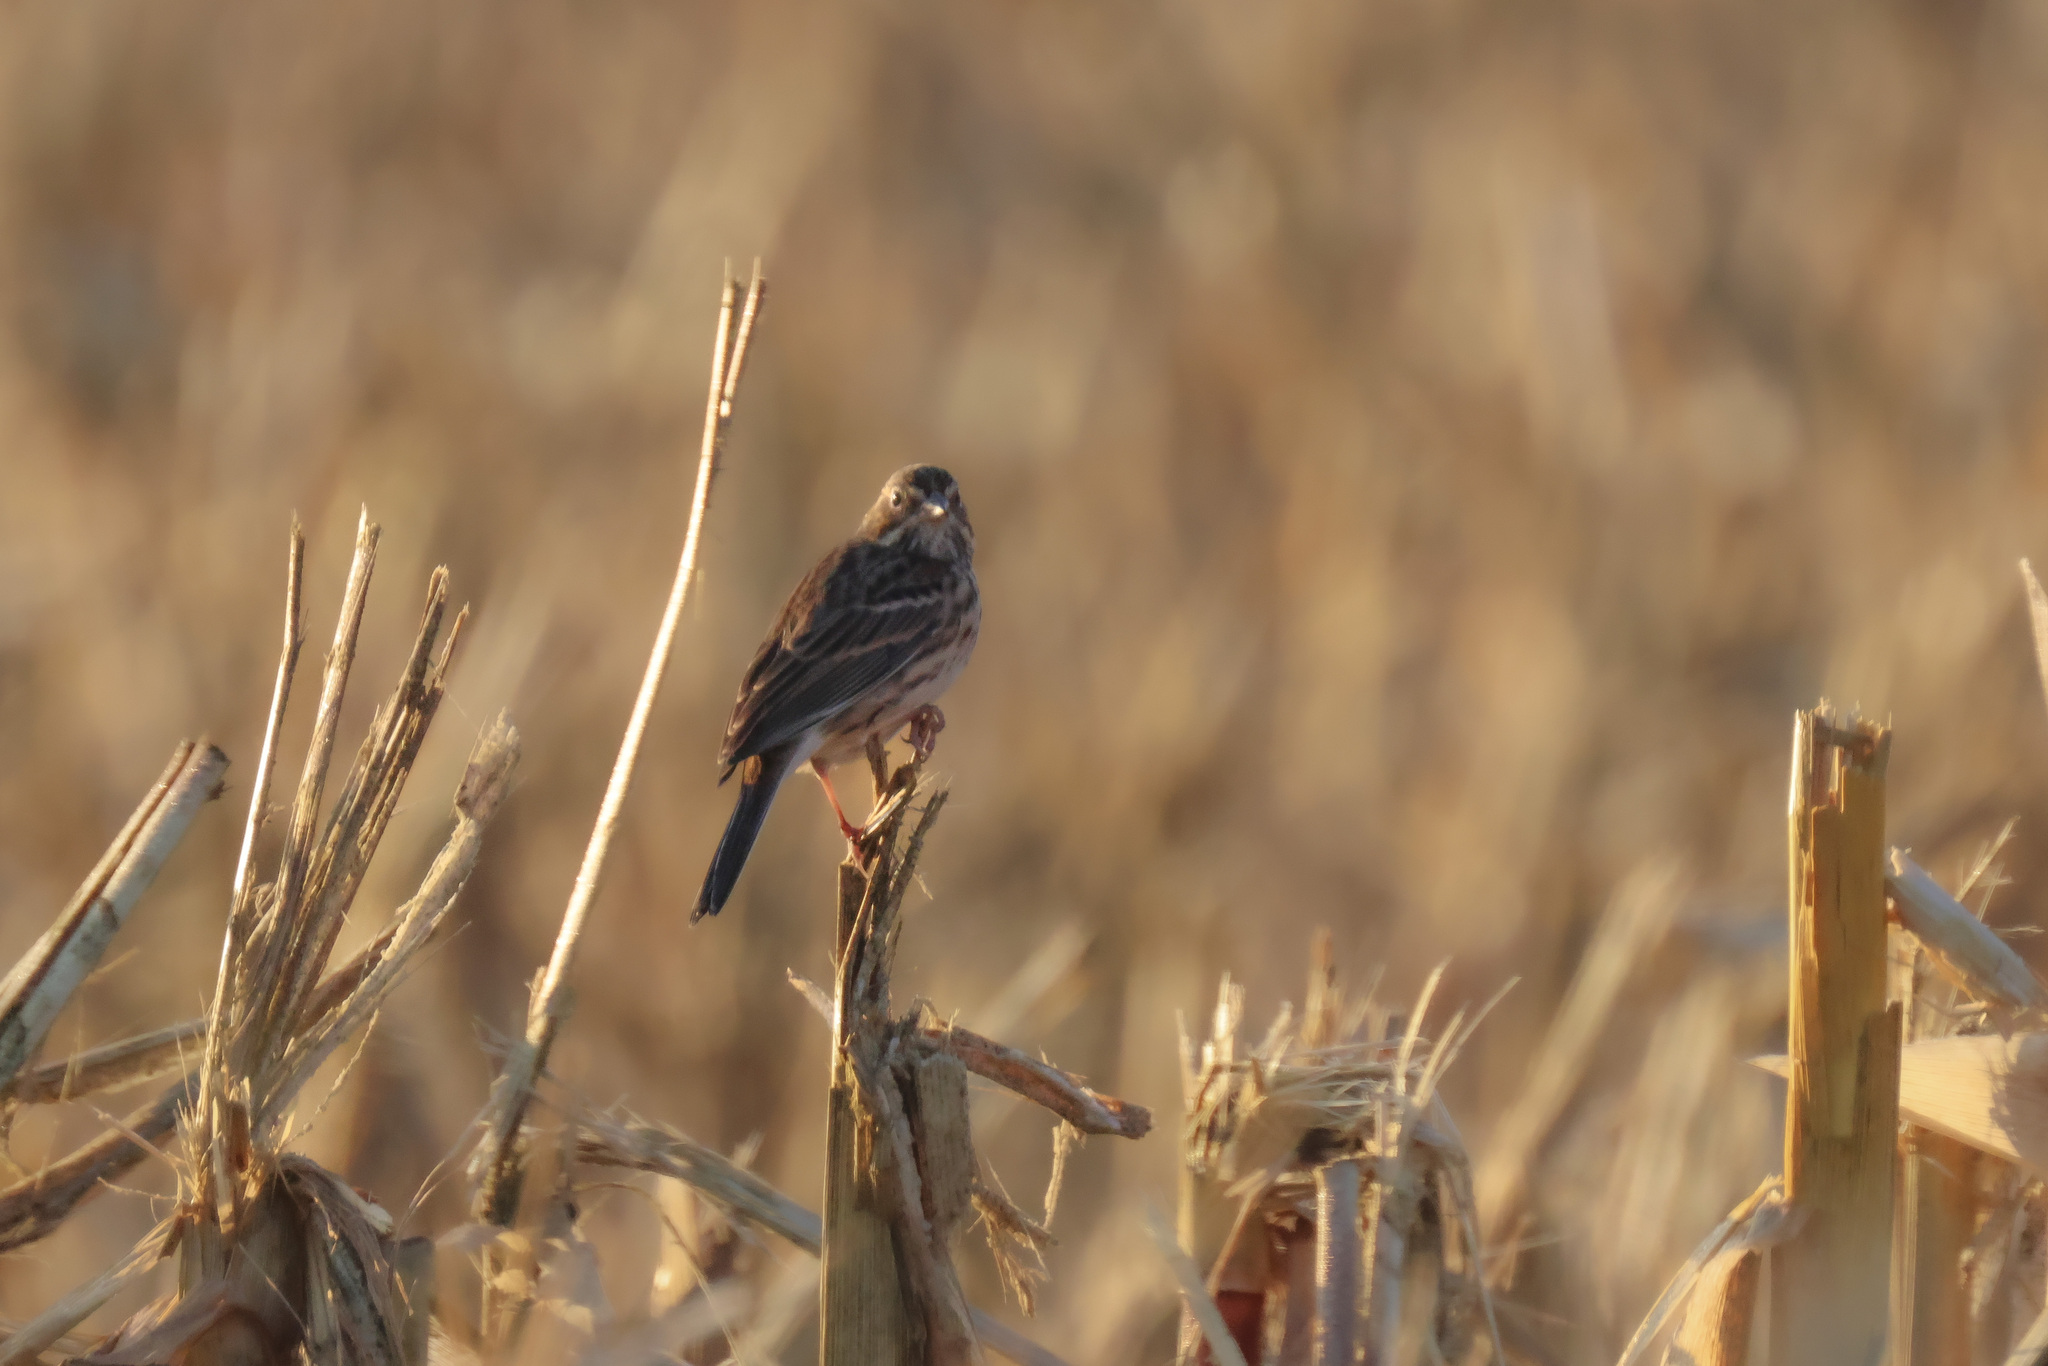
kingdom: Animalia
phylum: Chordata
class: Aves
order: Passeriformes
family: Passerellidae
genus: Pooecetes
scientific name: Pooecetes gramineus
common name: Vesper sparrow
